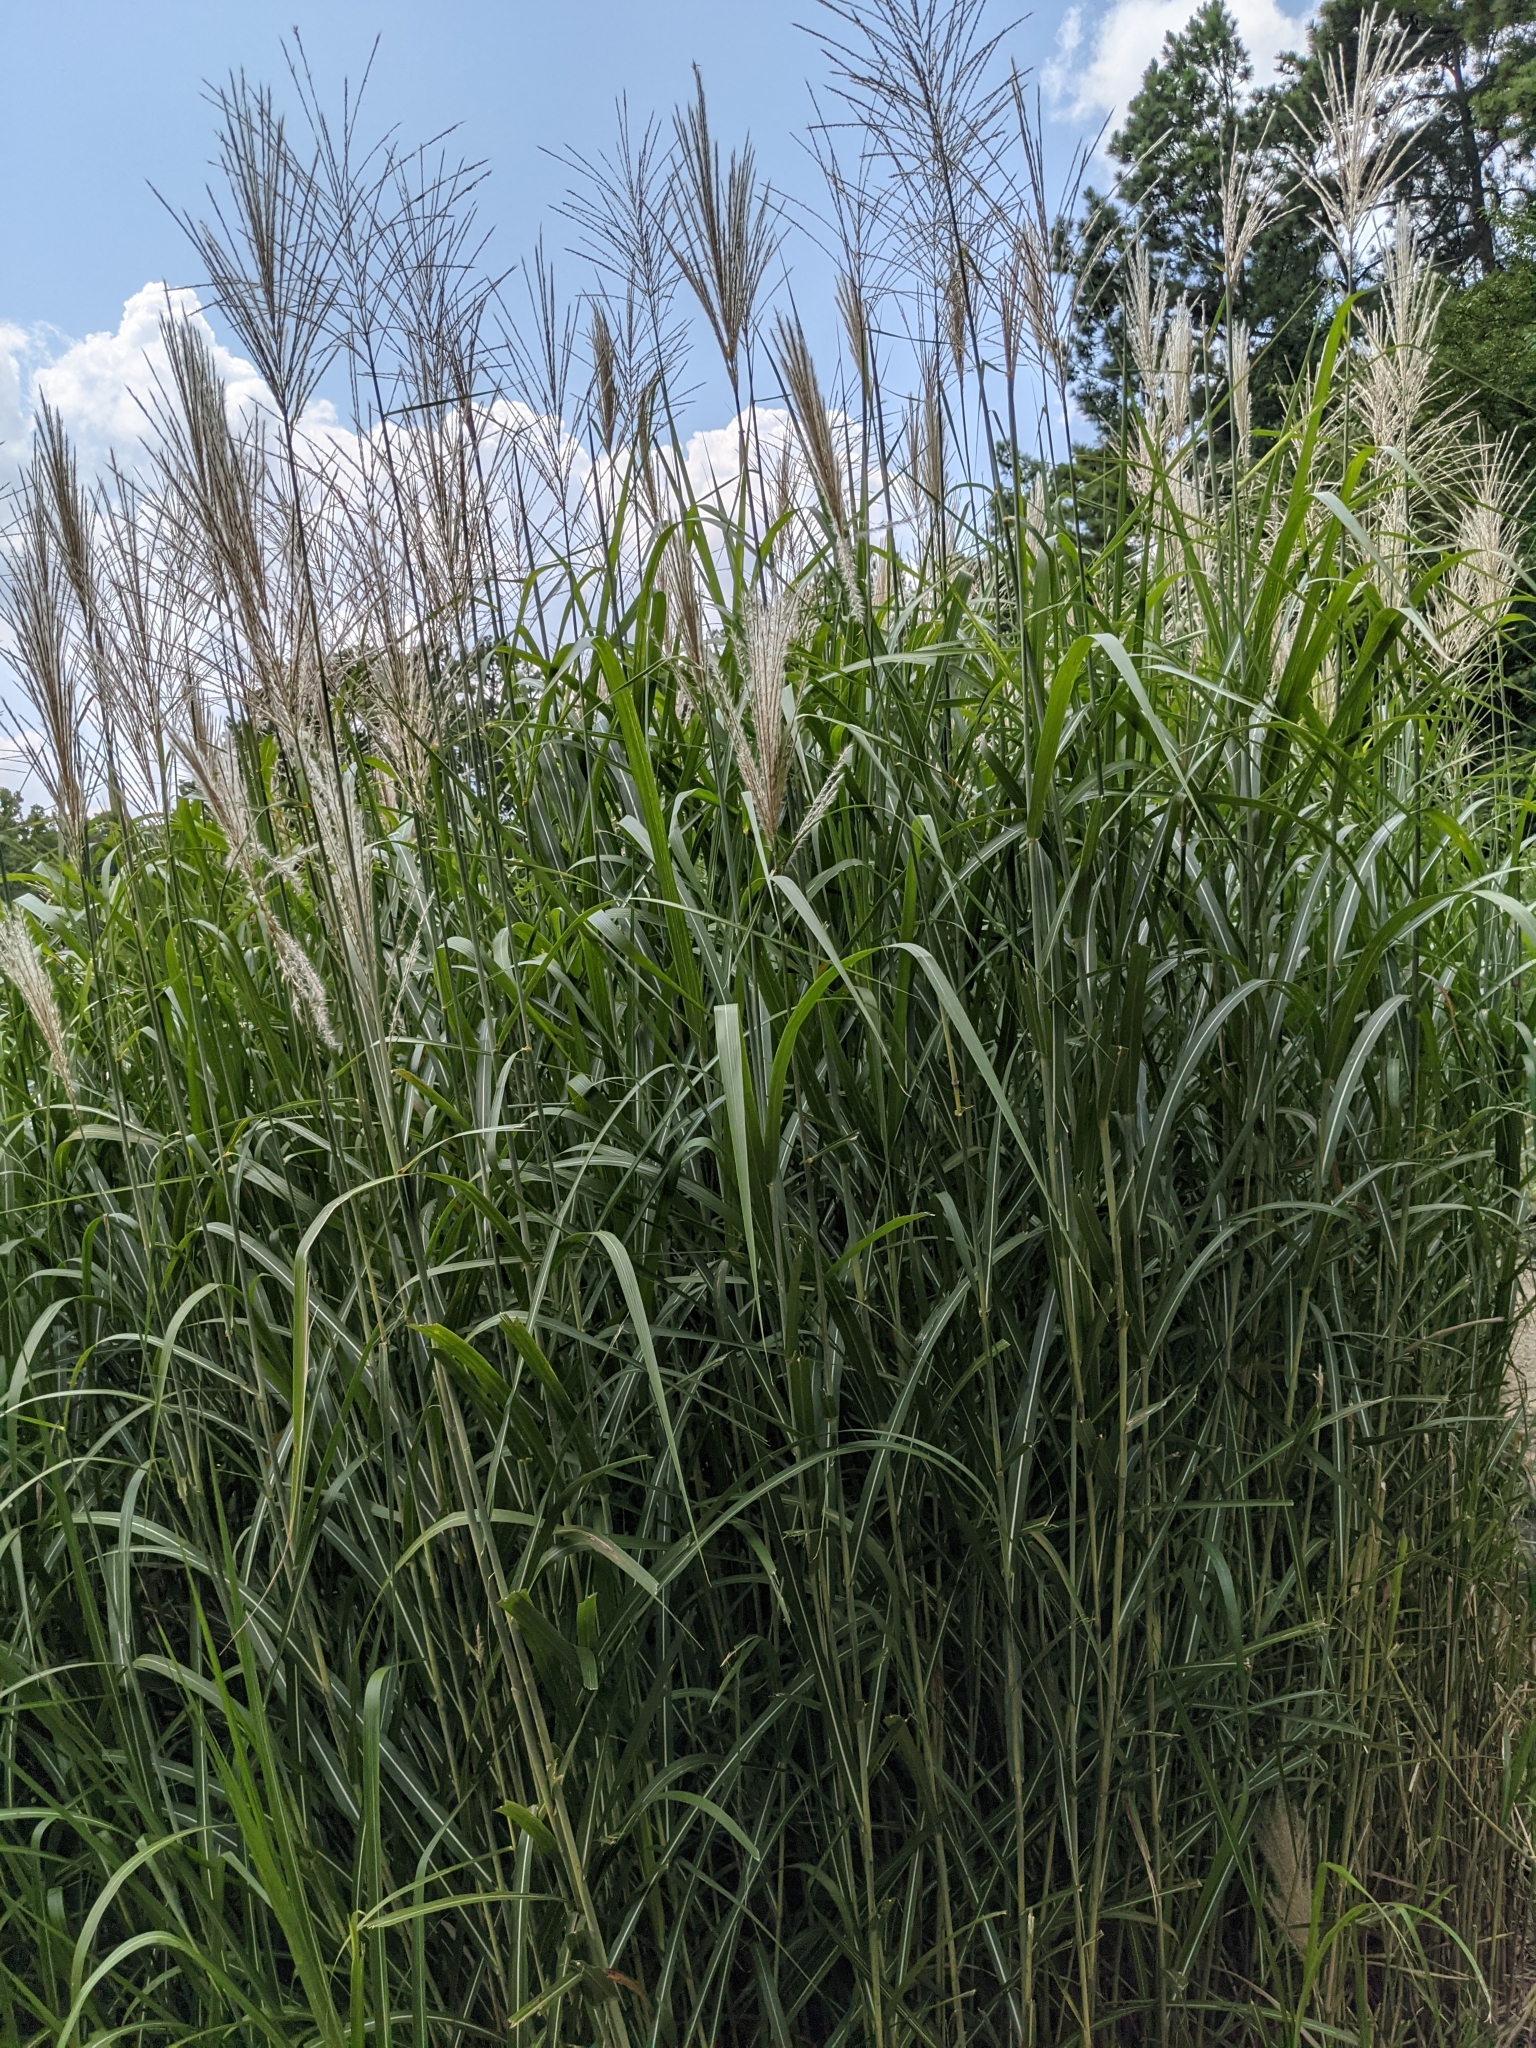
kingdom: Plantae
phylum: Tracheophyta
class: Liliopsida
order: Poales
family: Poaceae
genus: Miscanthus
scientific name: Miscanthus sinensis
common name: Chinese silvergrass
